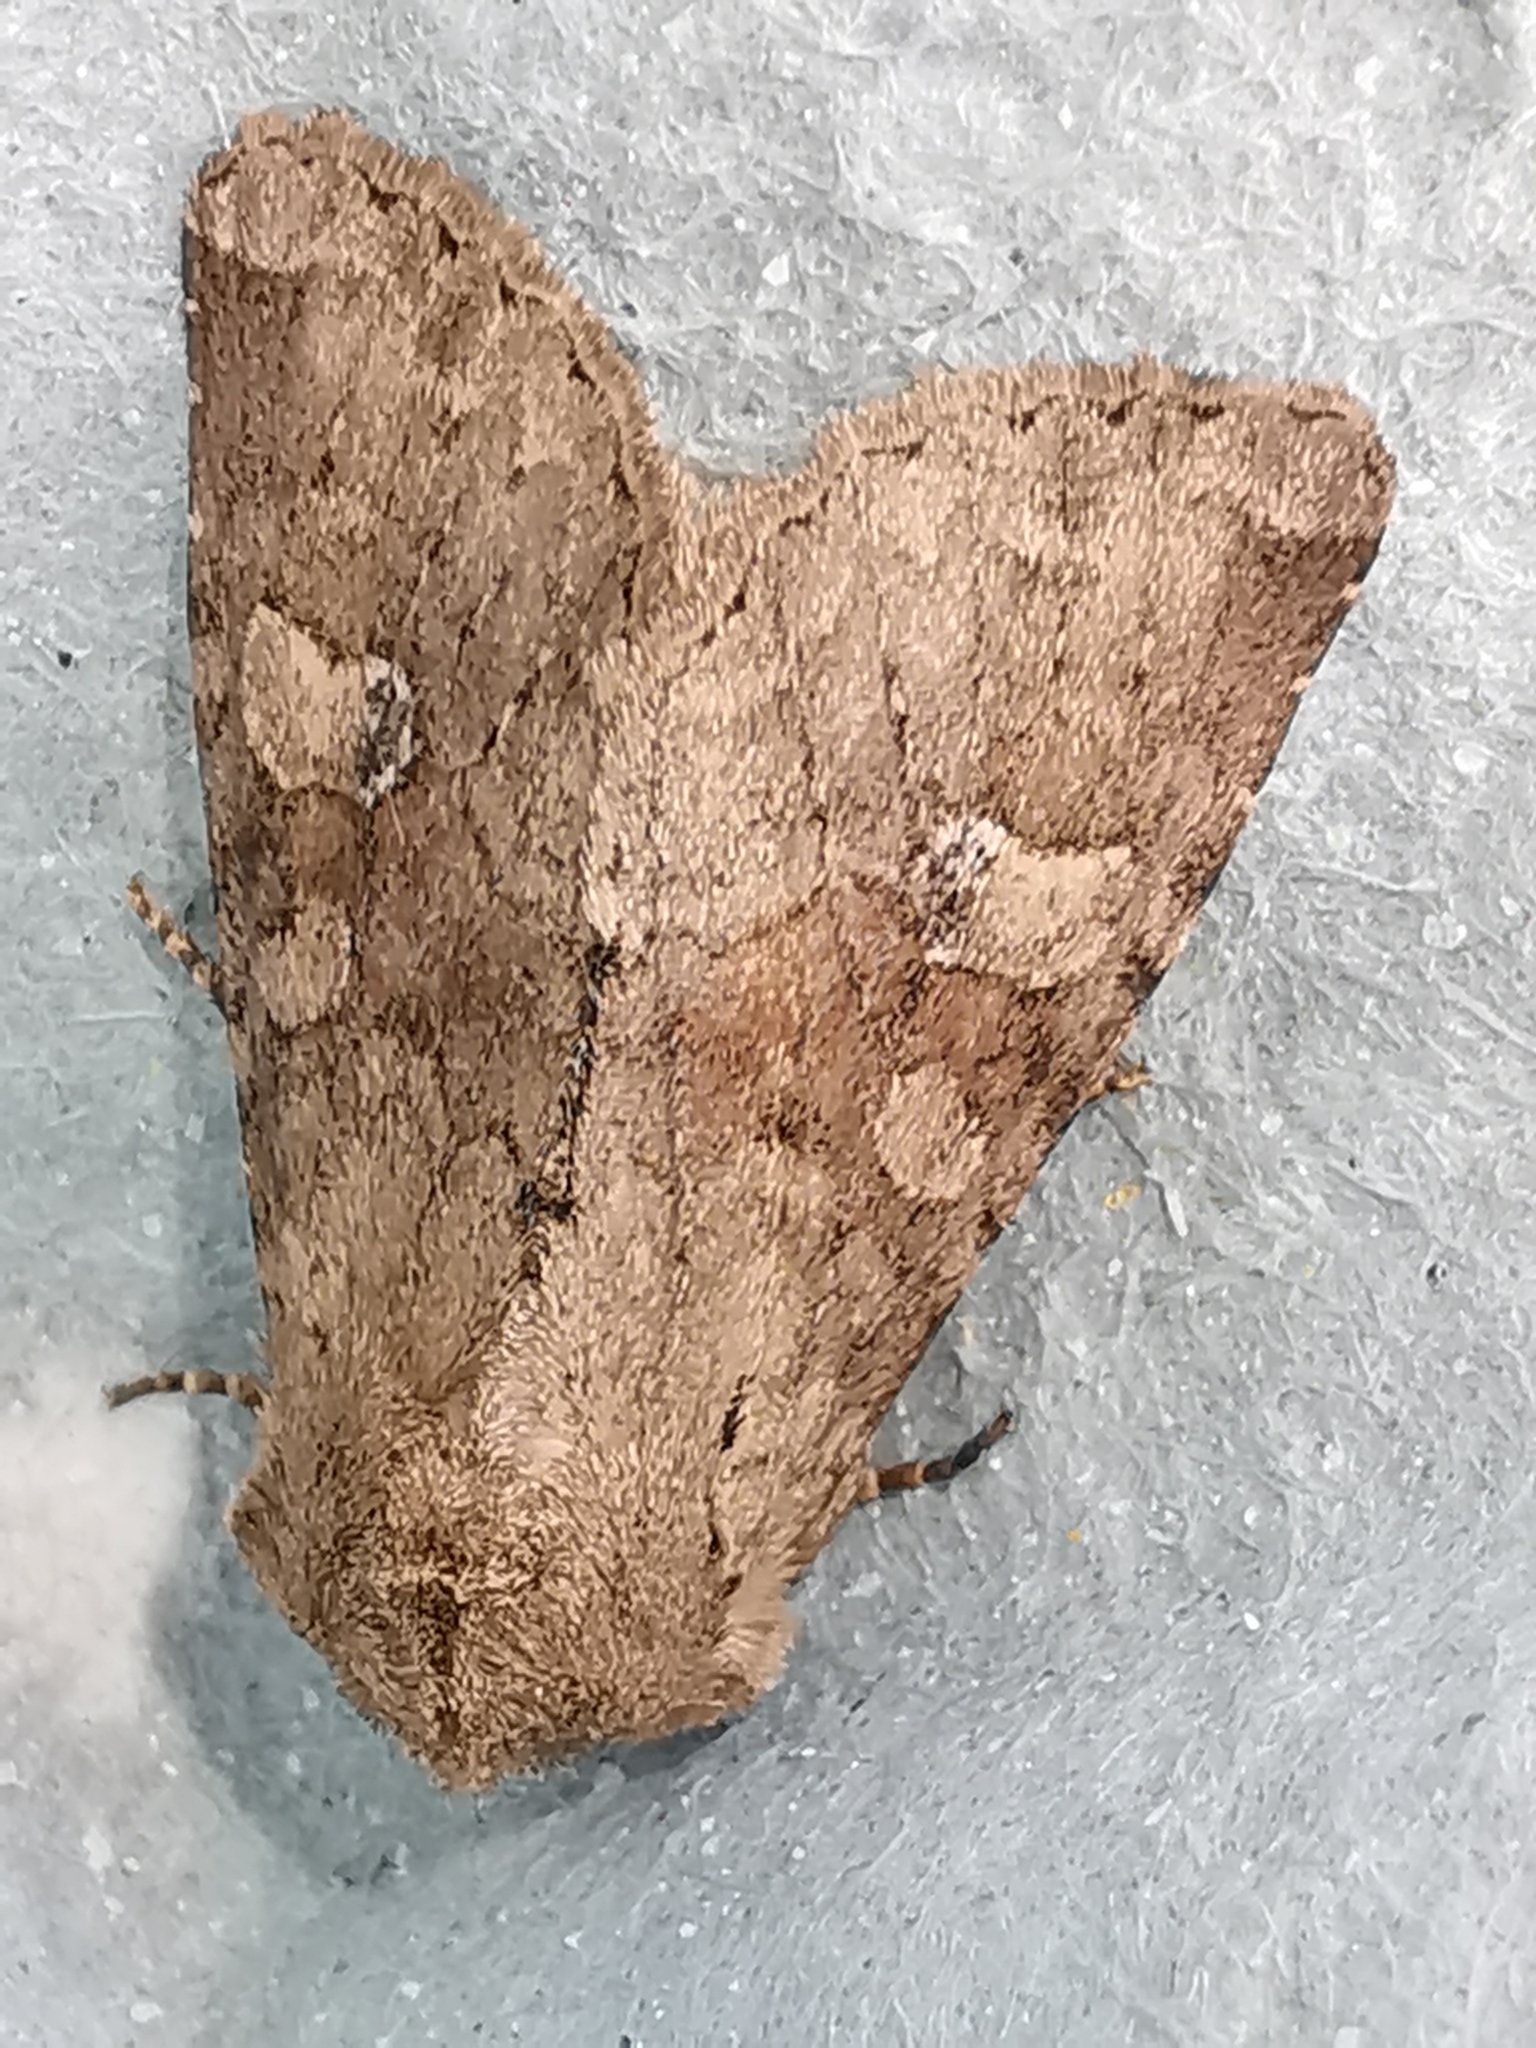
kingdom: Animalia
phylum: Arthropoda
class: Insecta
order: Lepidoptera
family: Noctuidae
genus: Apamea
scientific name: Apamea sordens
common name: Rustic shoulder-knot
